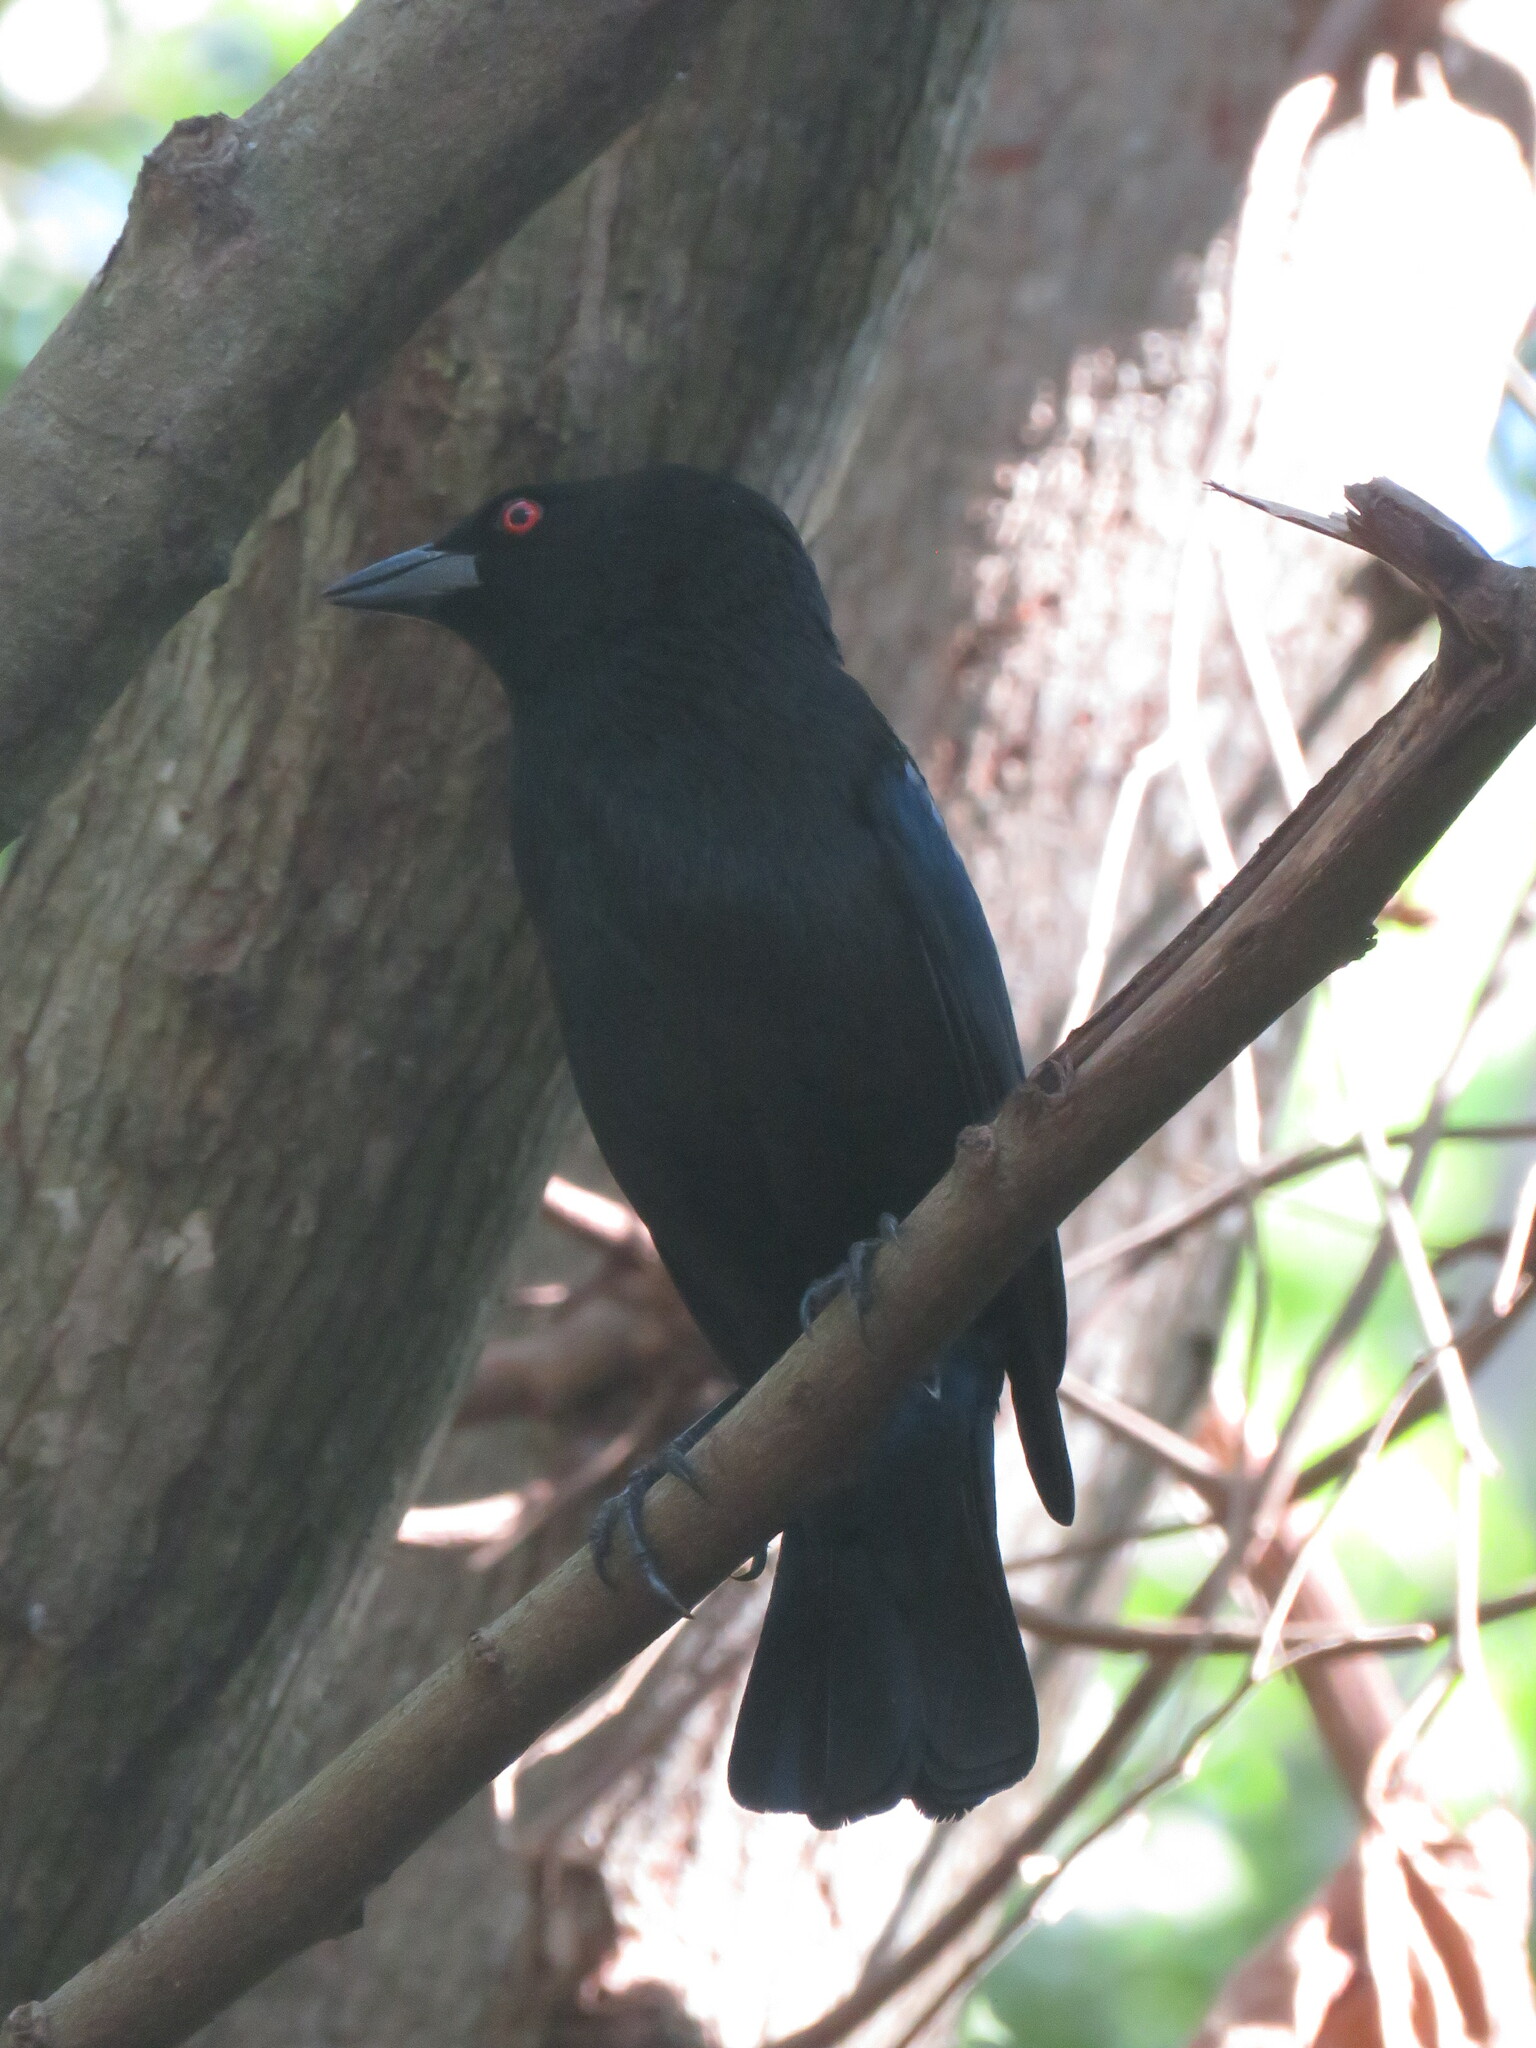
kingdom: Animalia
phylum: Chordata
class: Aves
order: Passeriformes
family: Icteridae
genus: Molothrus
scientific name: Molothrus aeneus
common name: Bronzed cowbird
